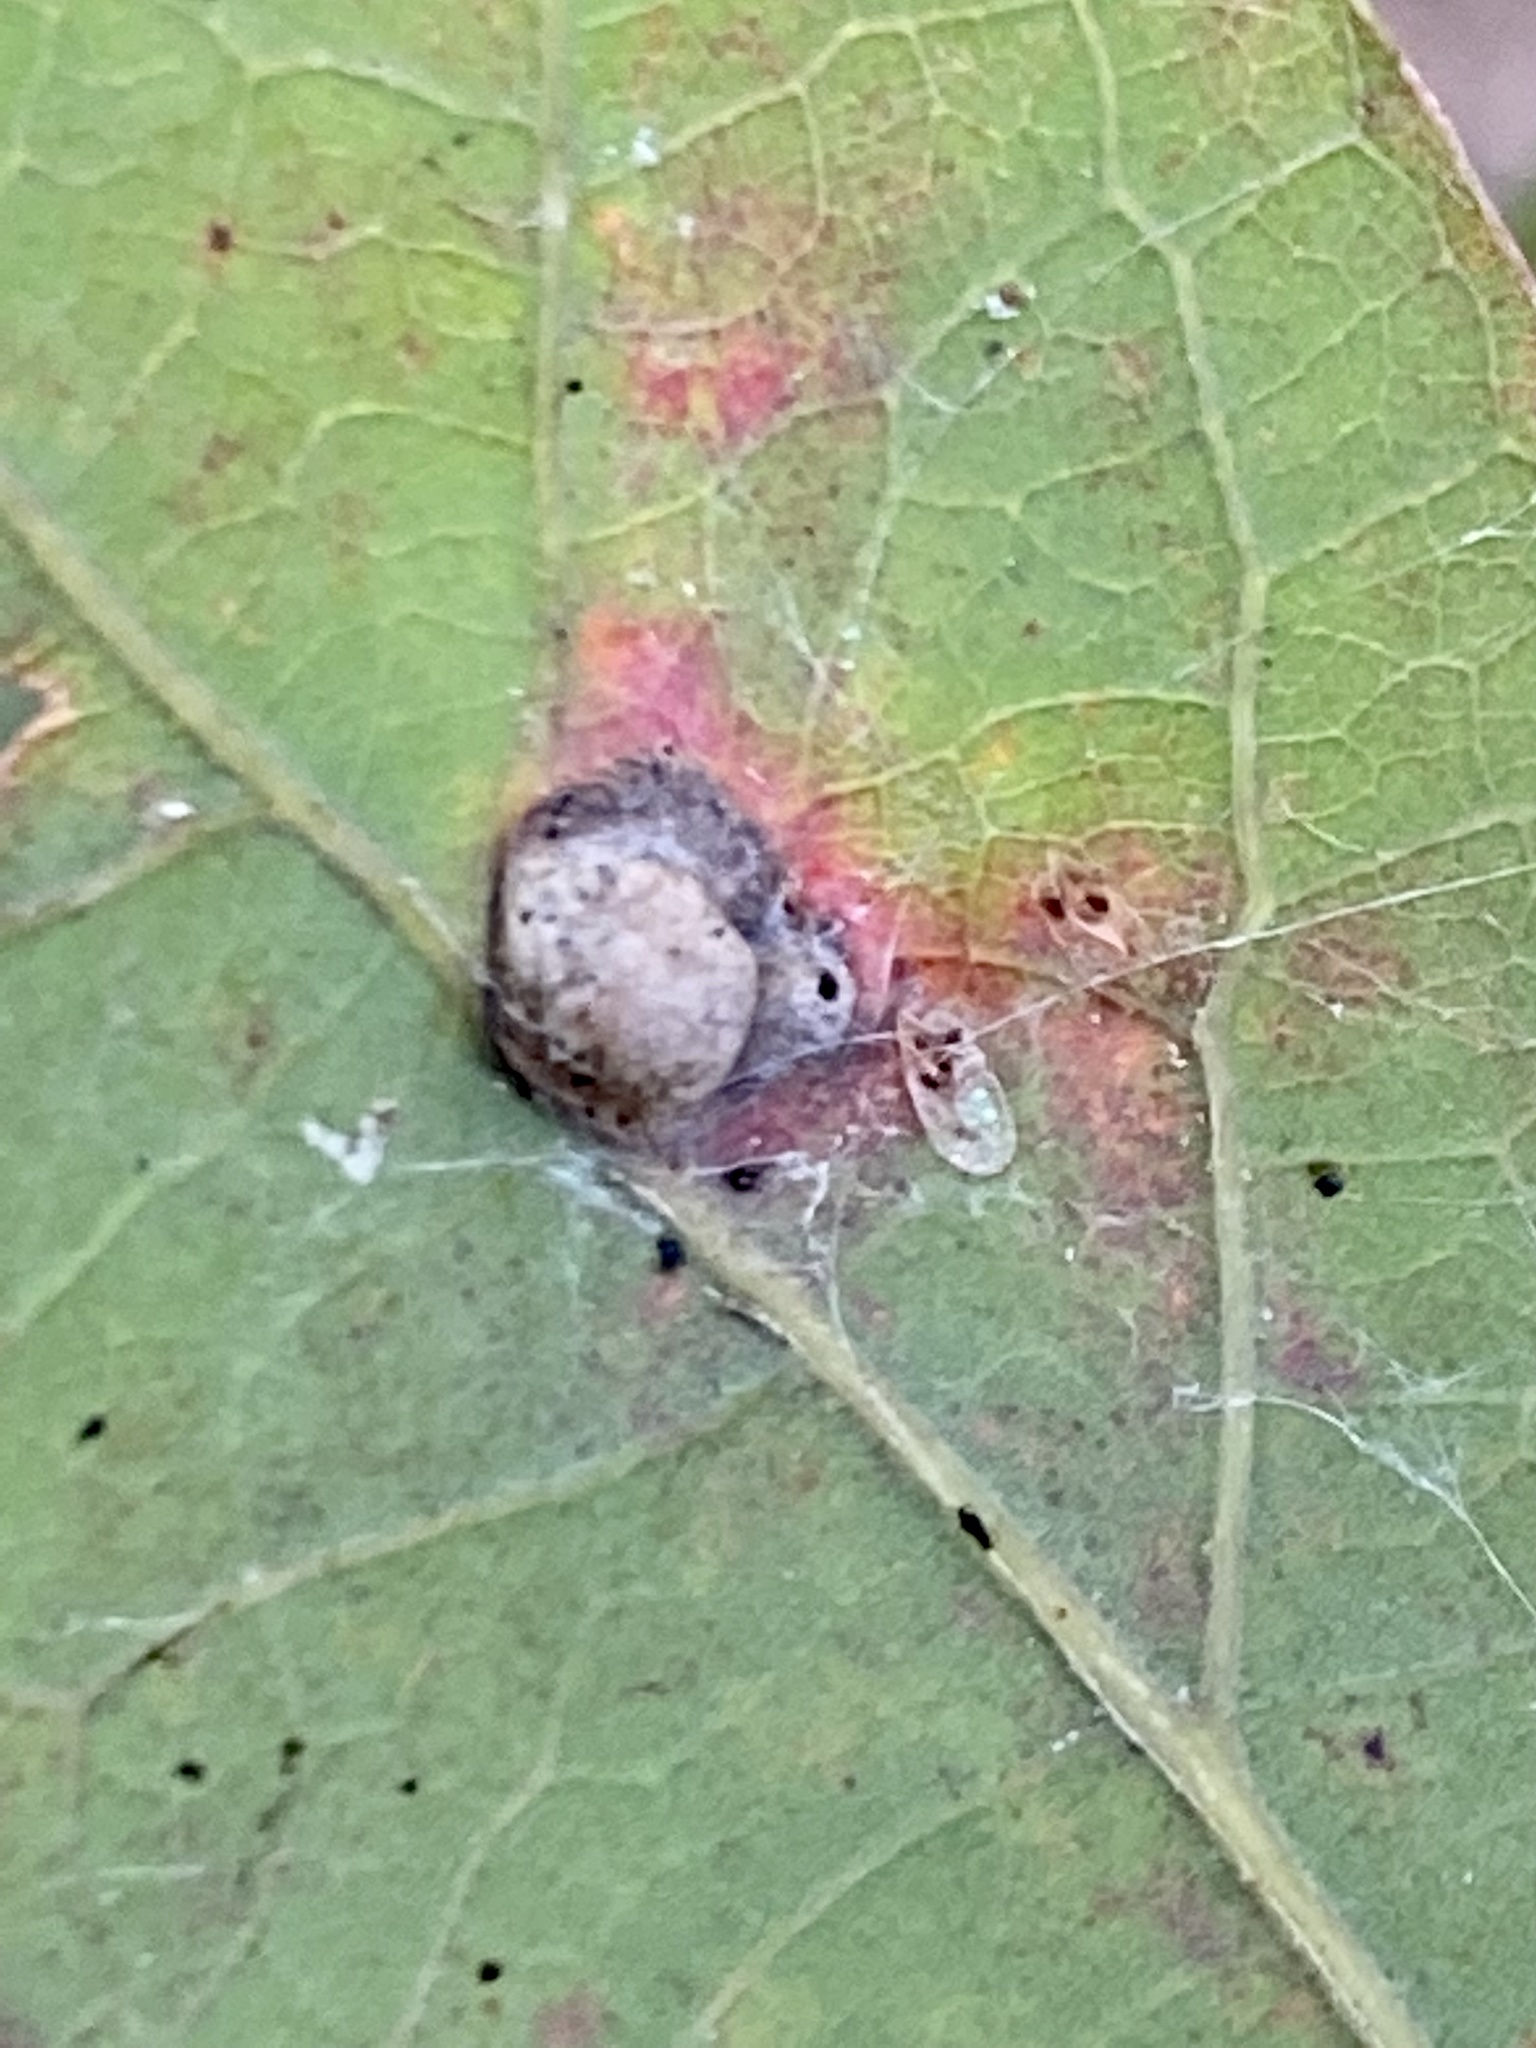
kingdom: Animalia
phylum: Arthropoda
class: Insecta
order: Hymenoptera
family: Cynipidae
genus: Callirhytis
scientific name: Callirhytis
